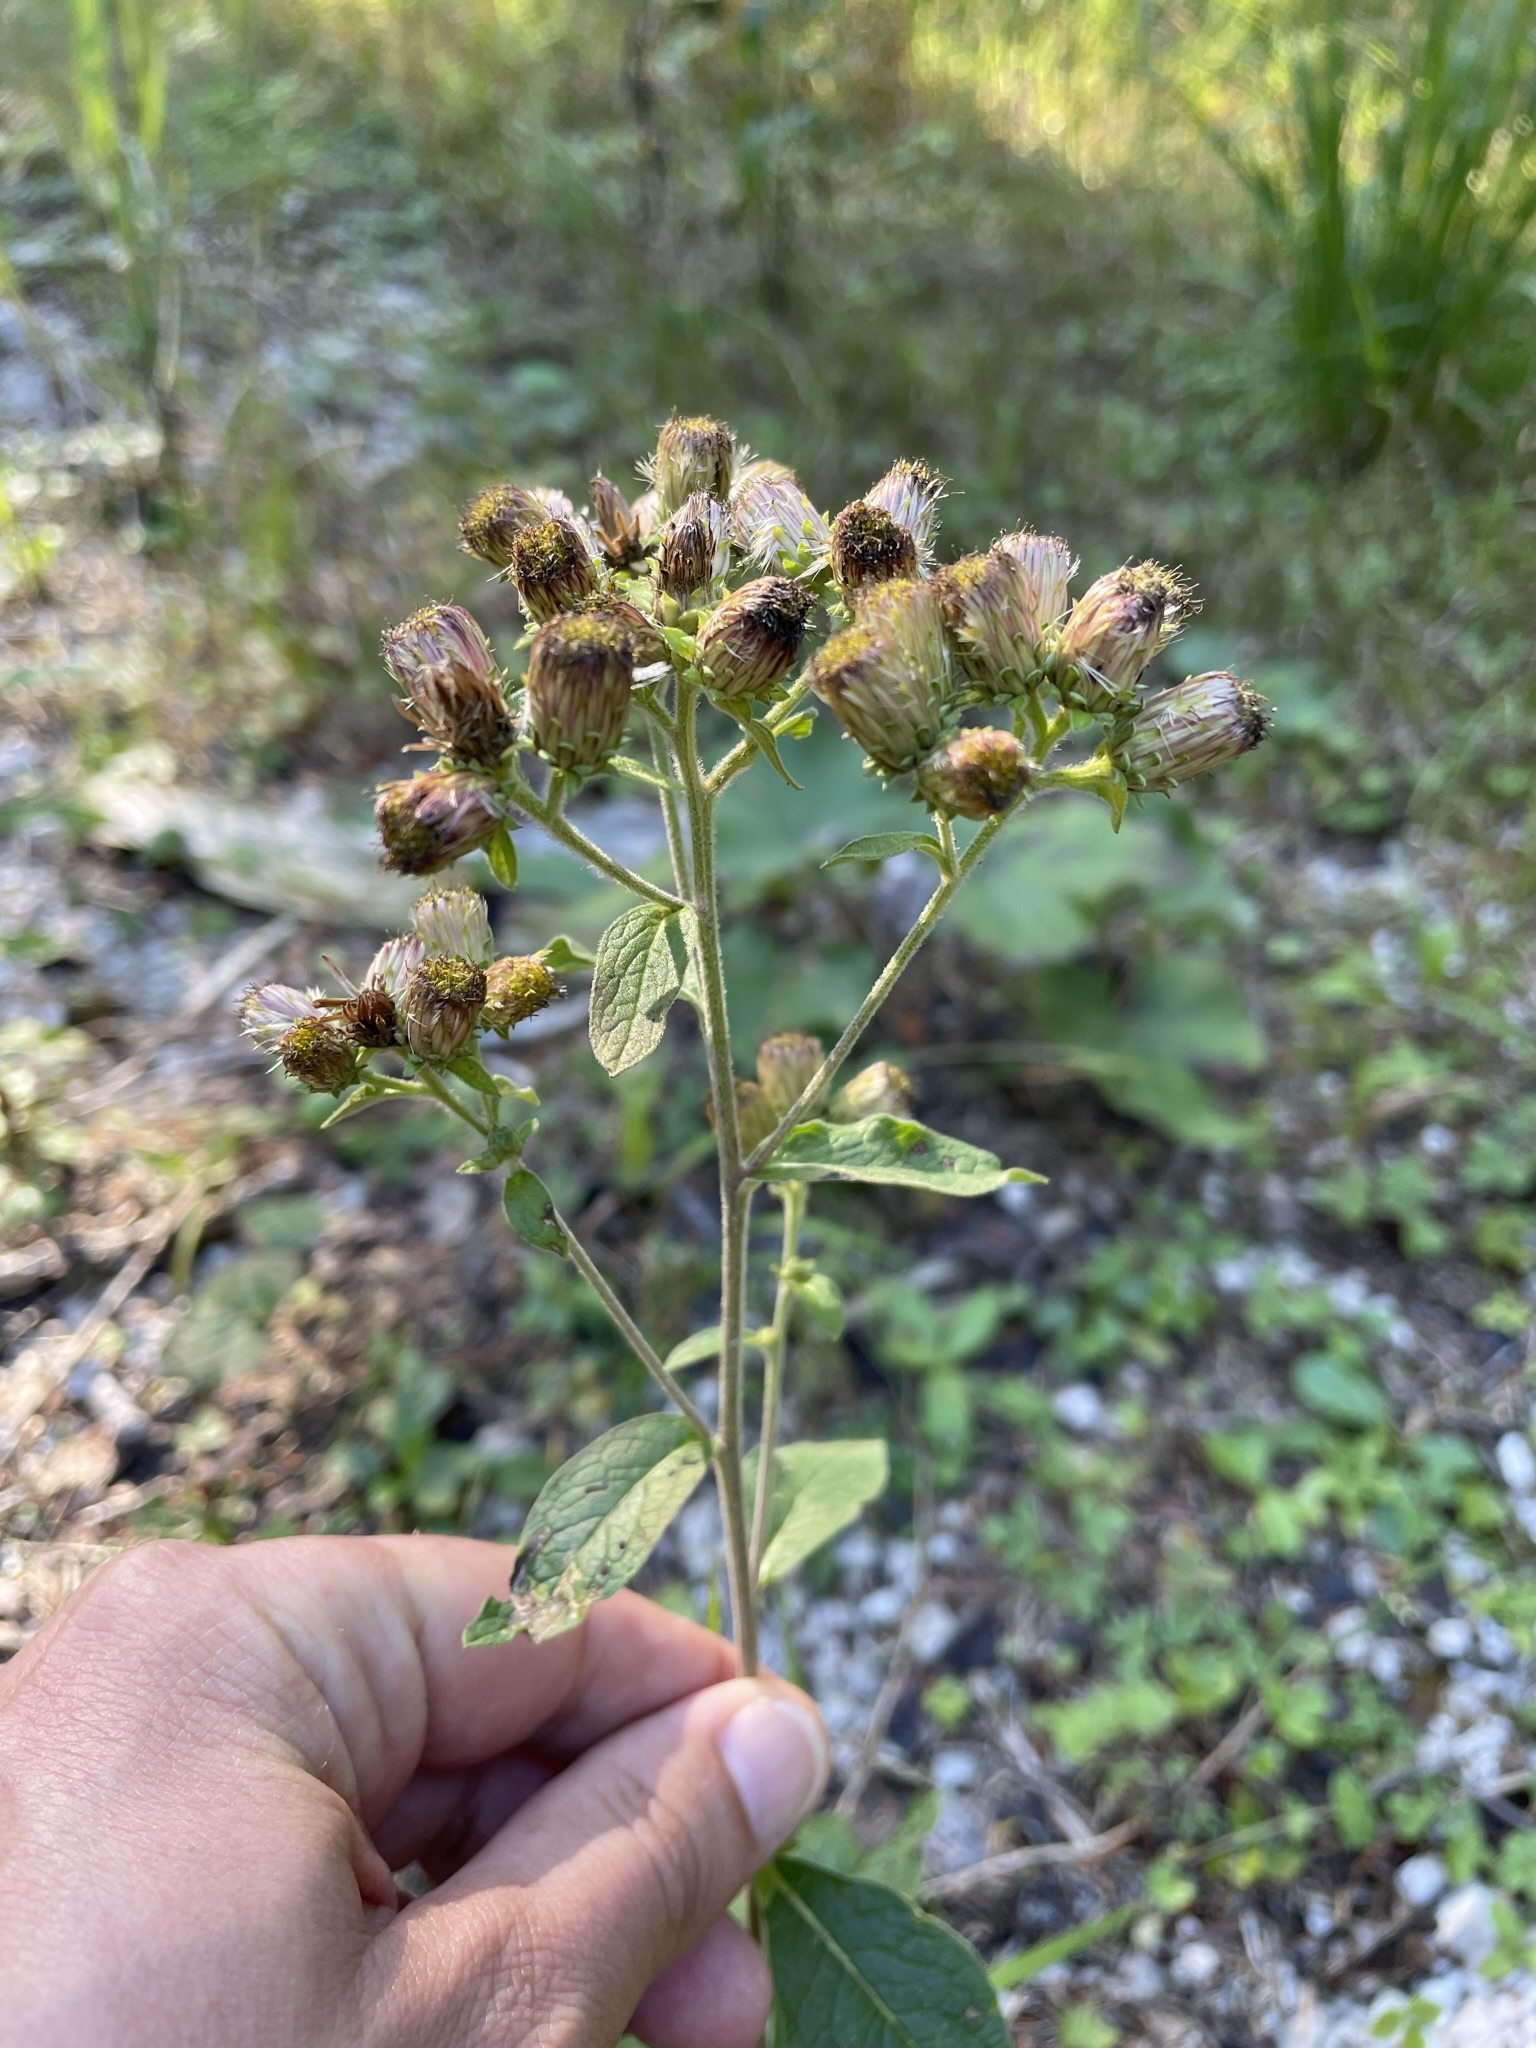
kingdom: Plantae
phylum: Tracheophyta
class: Magnoliopsida
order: Asterales
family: Asteraceae
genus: Pentanema
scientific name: Pentanema squarrosum
